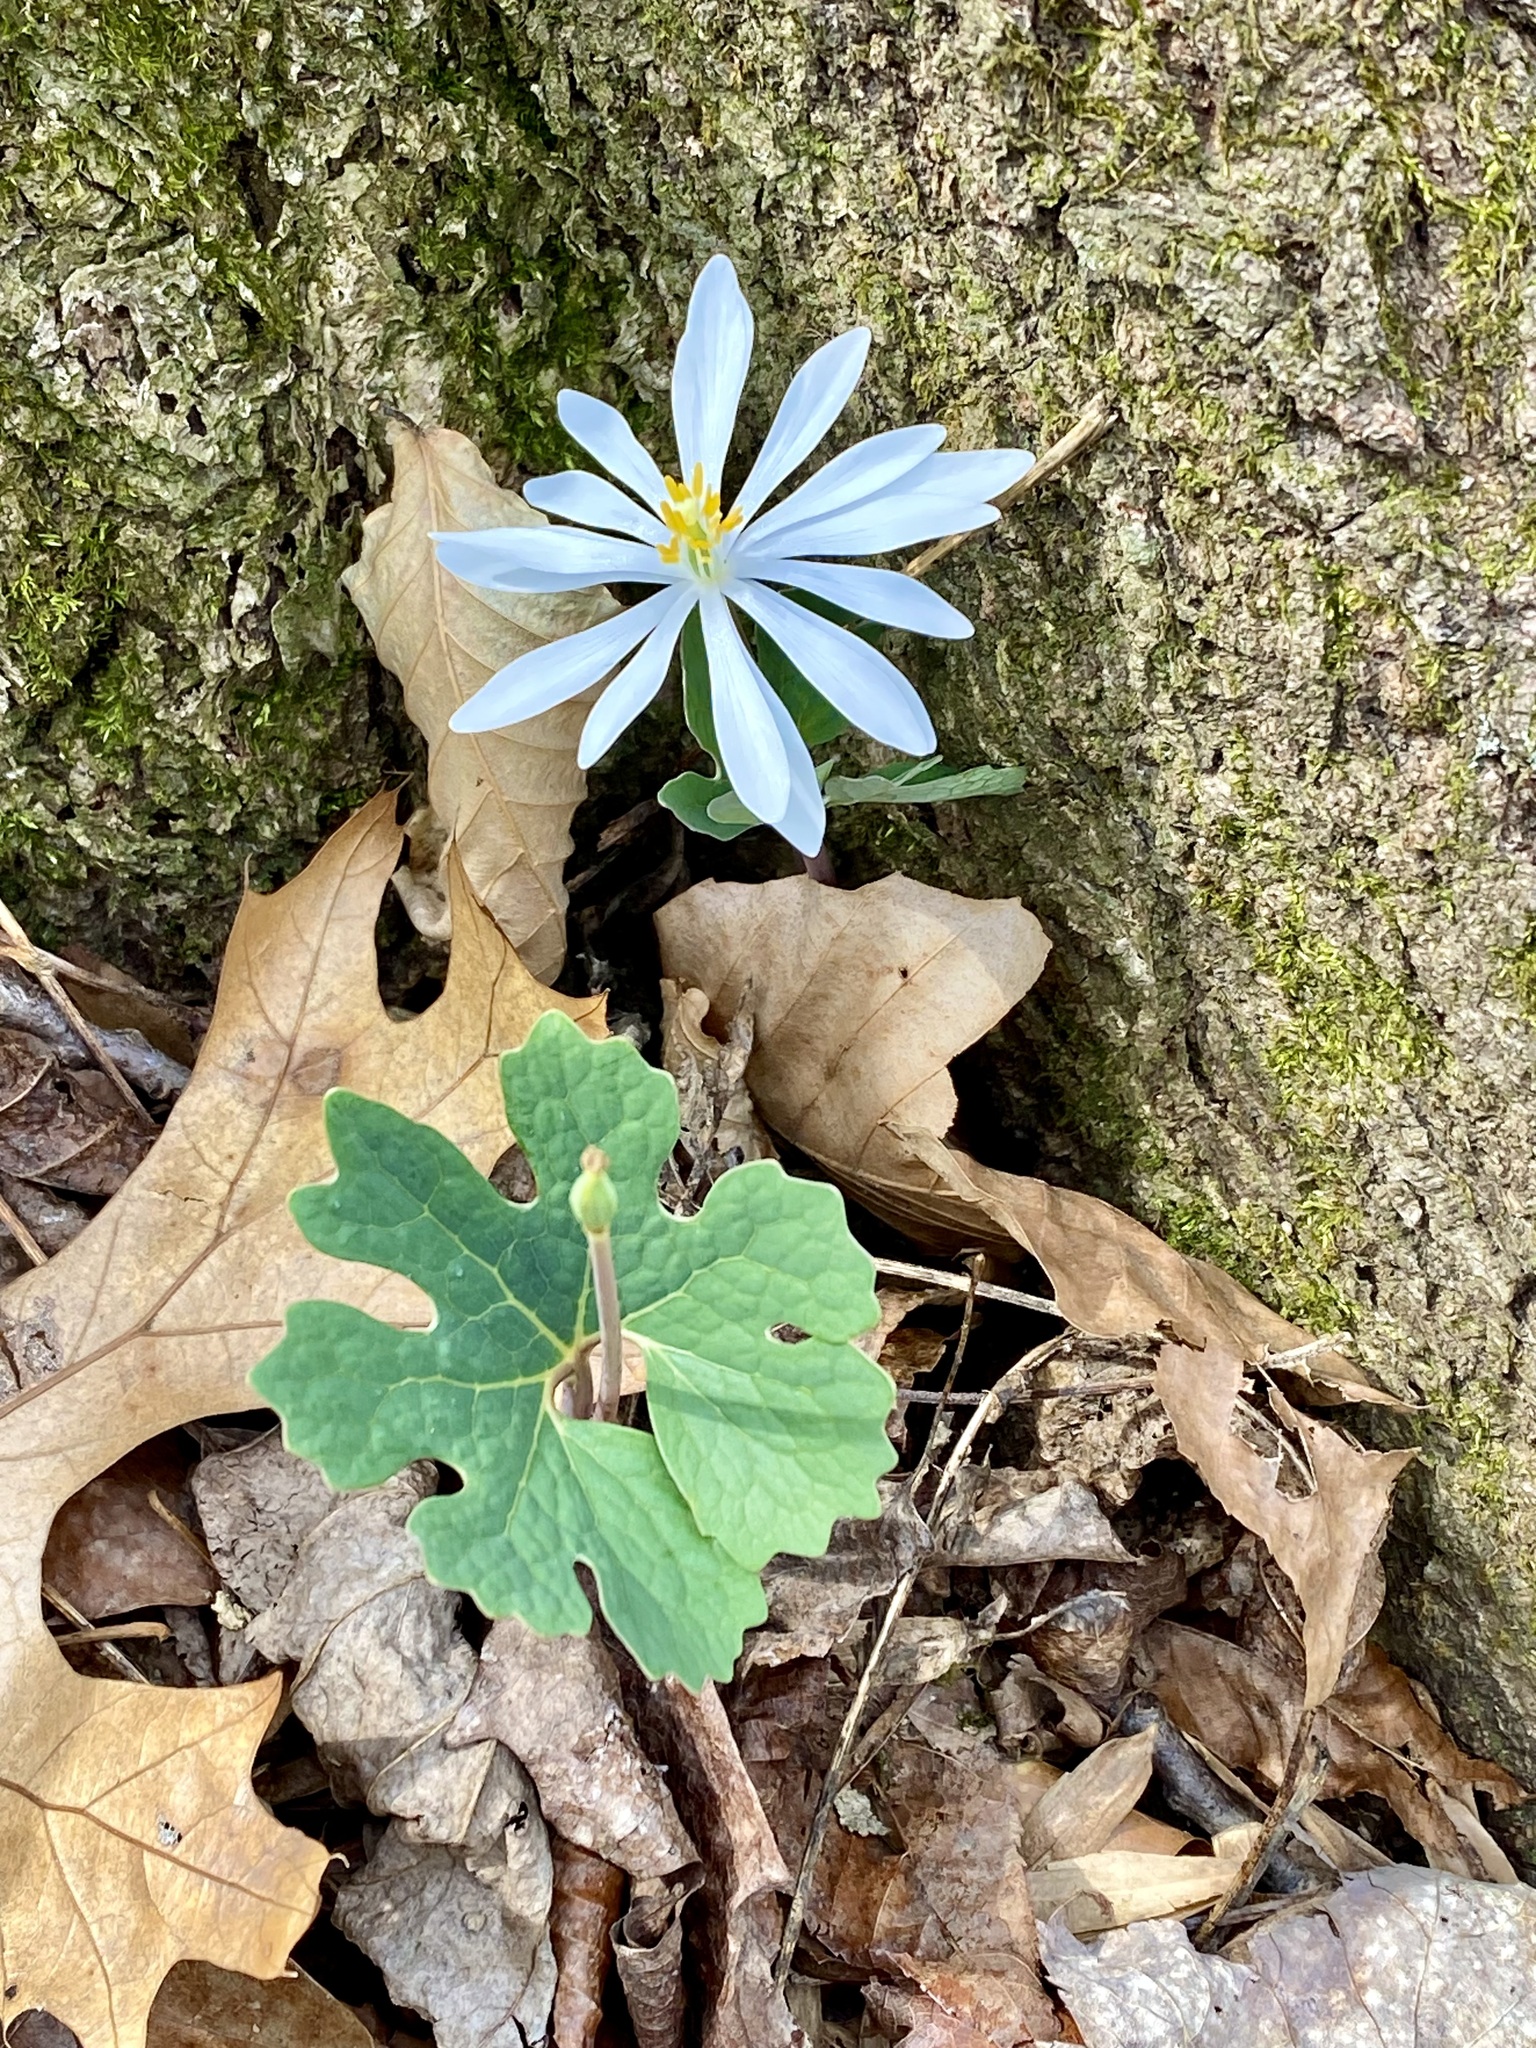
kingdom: Plantae
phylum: Tracheophyta
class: Magnoliopsida
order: Ranunculales
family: Papaveraceae
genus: Sanguinaria
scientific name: Sanguinaria canadensis
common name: Bloodroot
